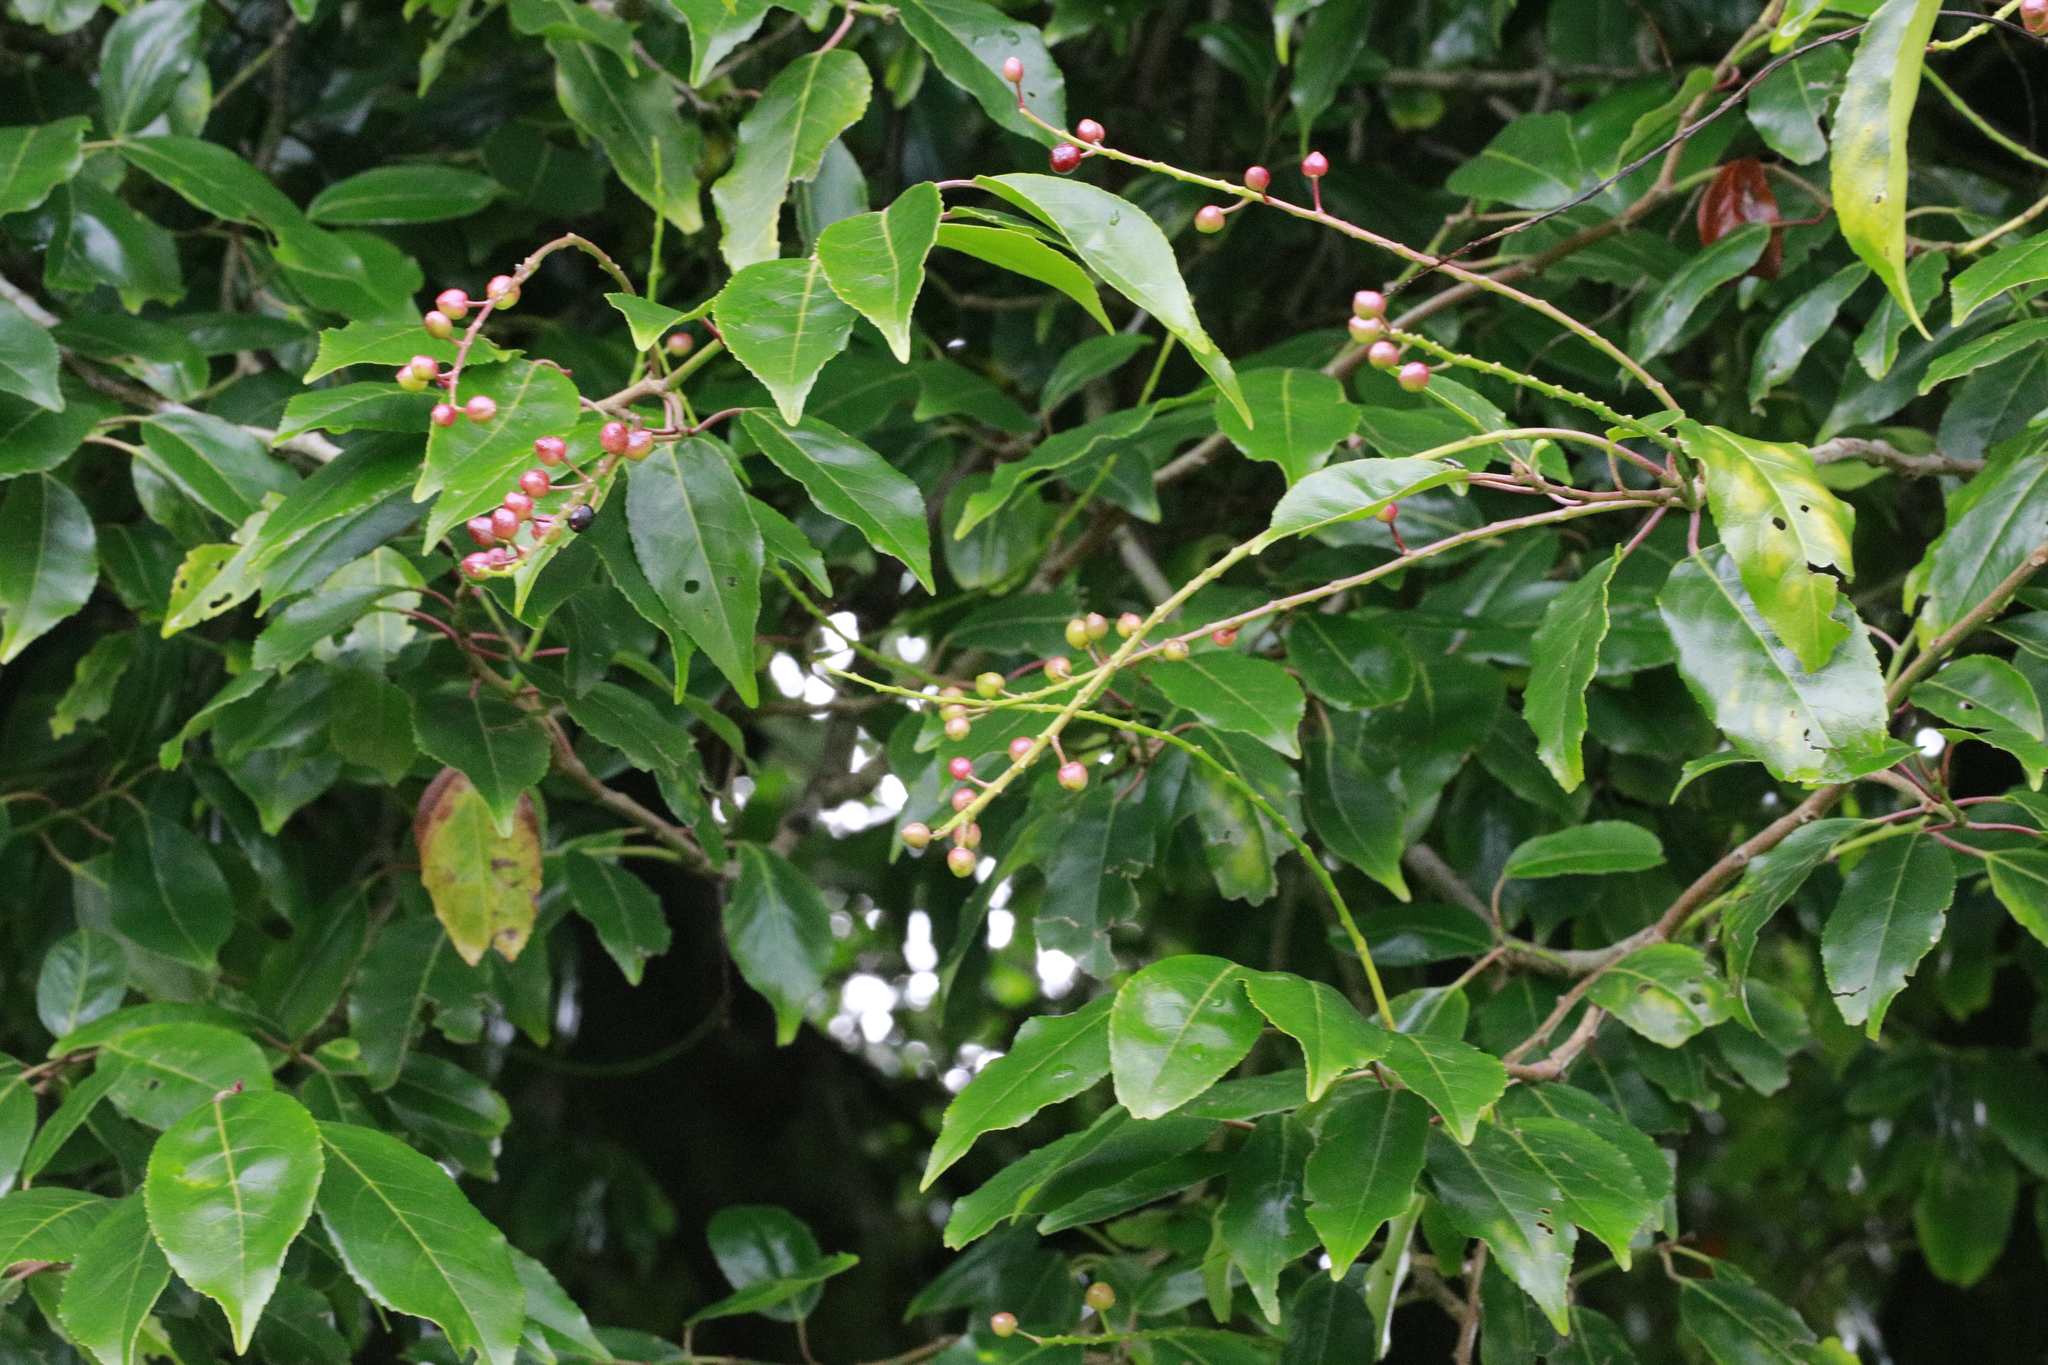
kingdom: Plantae
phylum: Tracheophyta
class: Magnoliopsida
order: Rosales
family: Rosaceae
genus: Prunus
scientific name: Prunus lusitanica
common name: Portugal laurel
